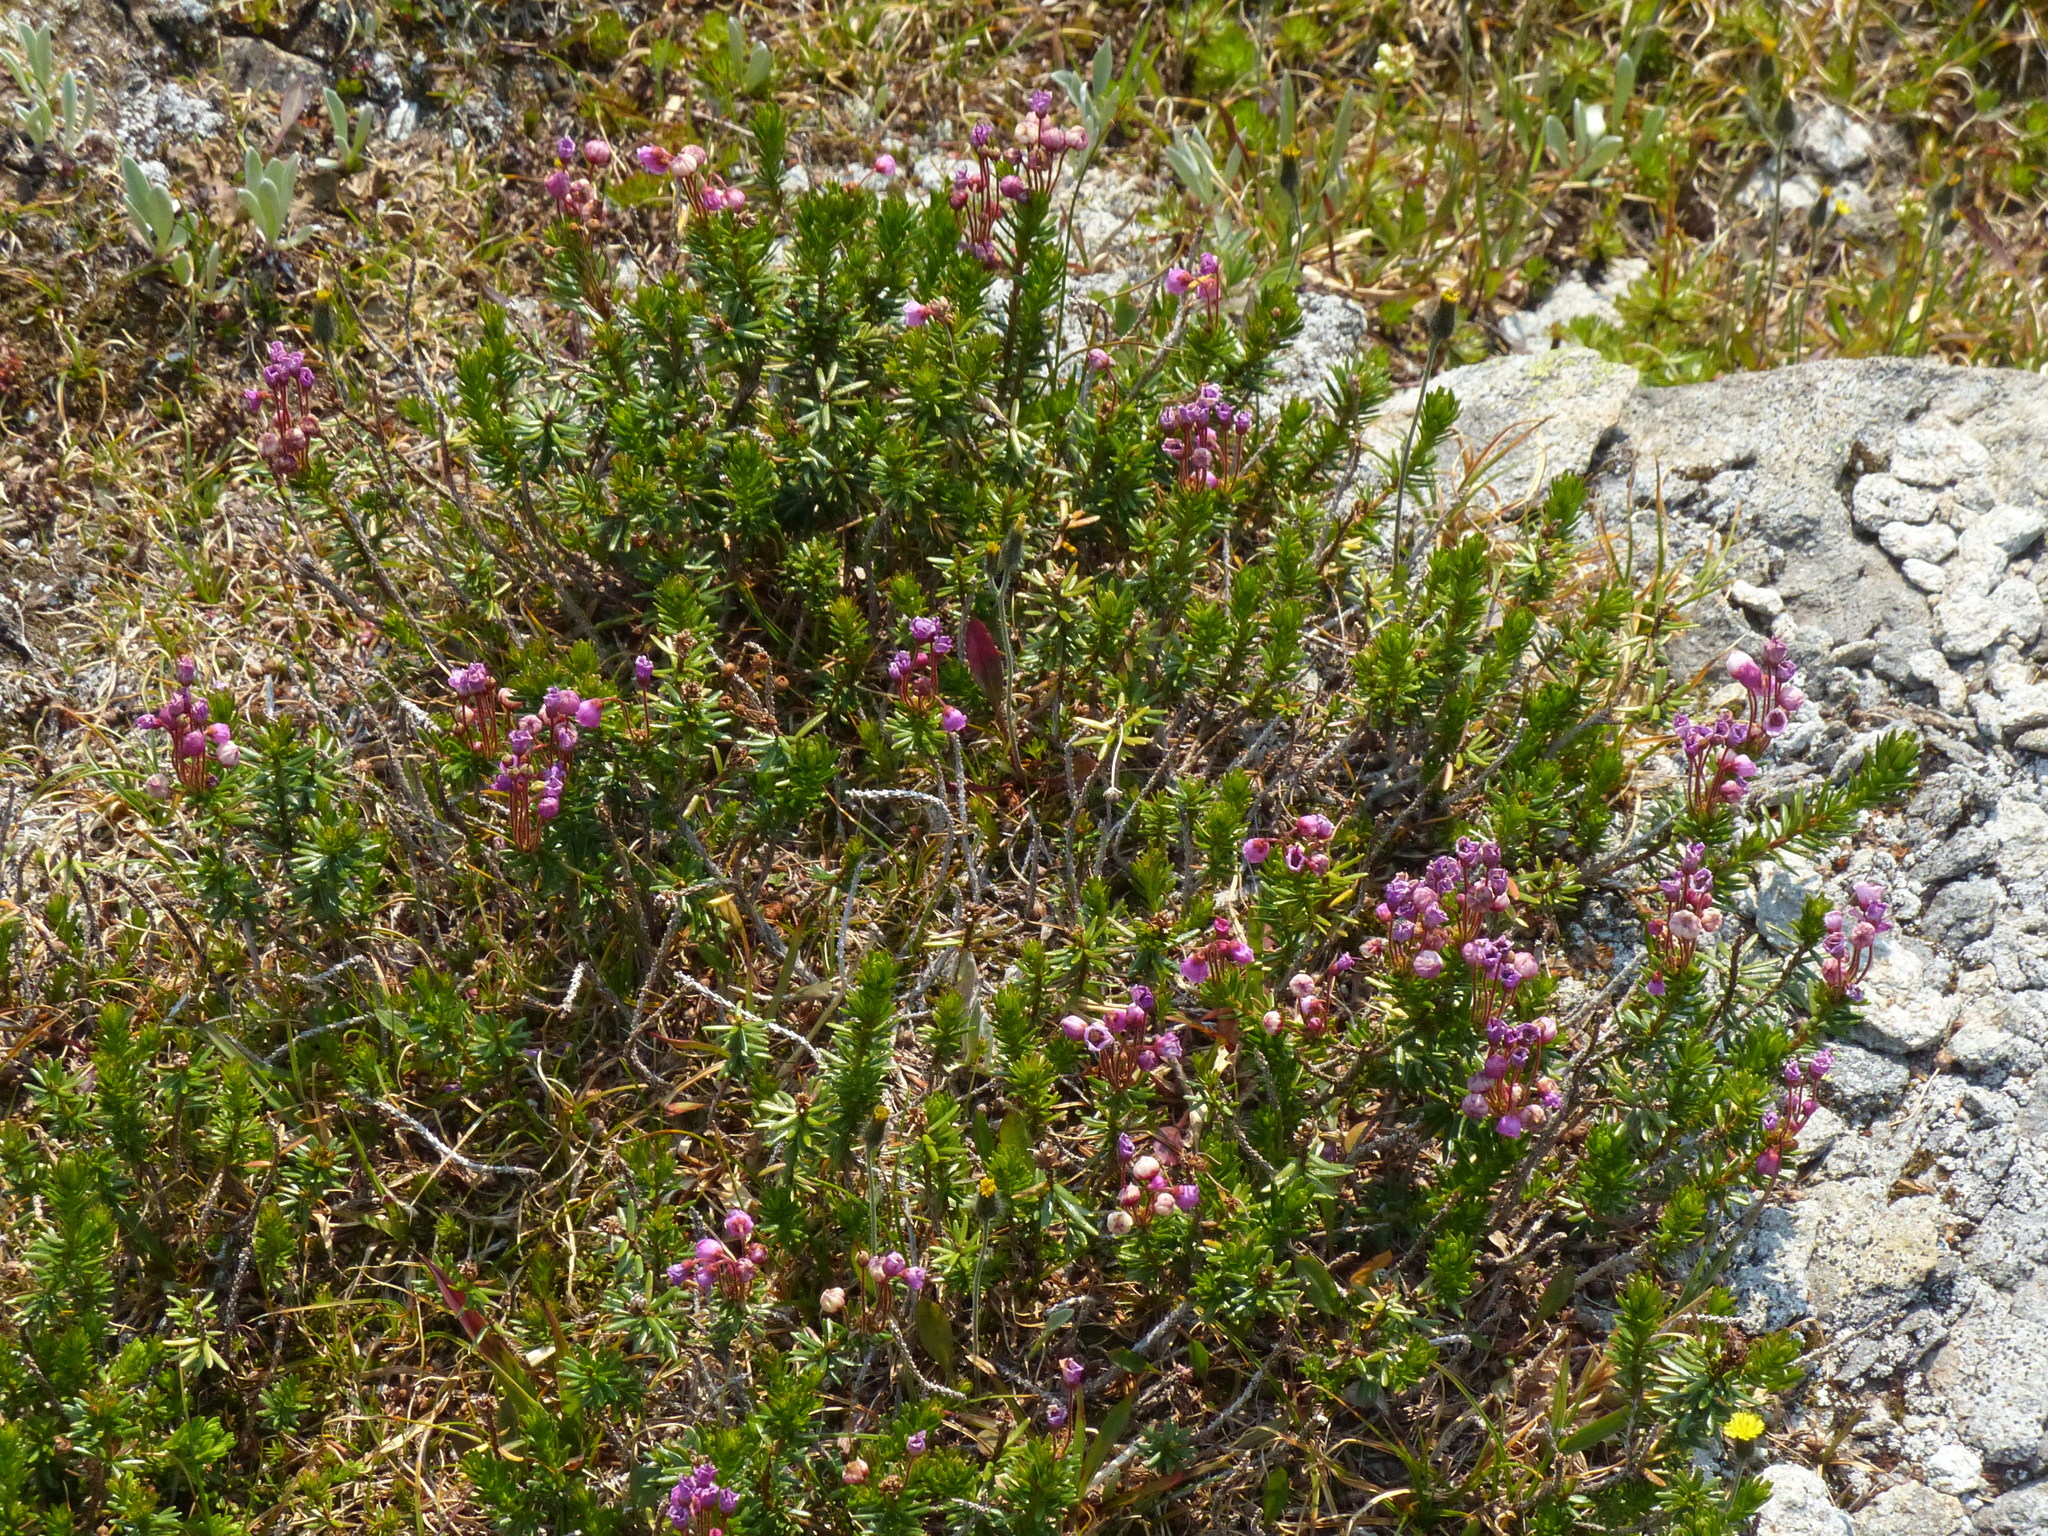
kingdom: Plantae
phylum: Tracheophyta
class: Magnoliopsida
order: Ericales
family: Ericaceae
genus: Phyllodoce
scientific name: Phyllodoce empetriformis
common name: Pink mountain heather
